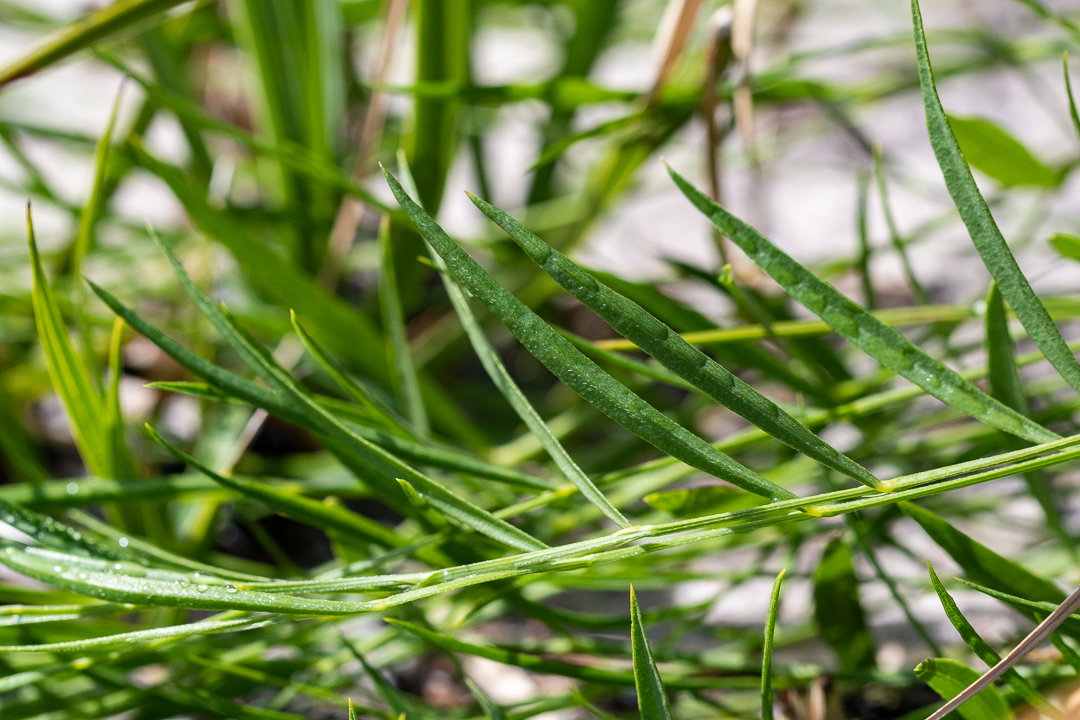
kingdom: Plantae
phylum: Tracheophyta
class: Magnoliopsida
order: Fabales
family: Fabaceae
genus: Psoralea
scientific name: Psoralea laxa
